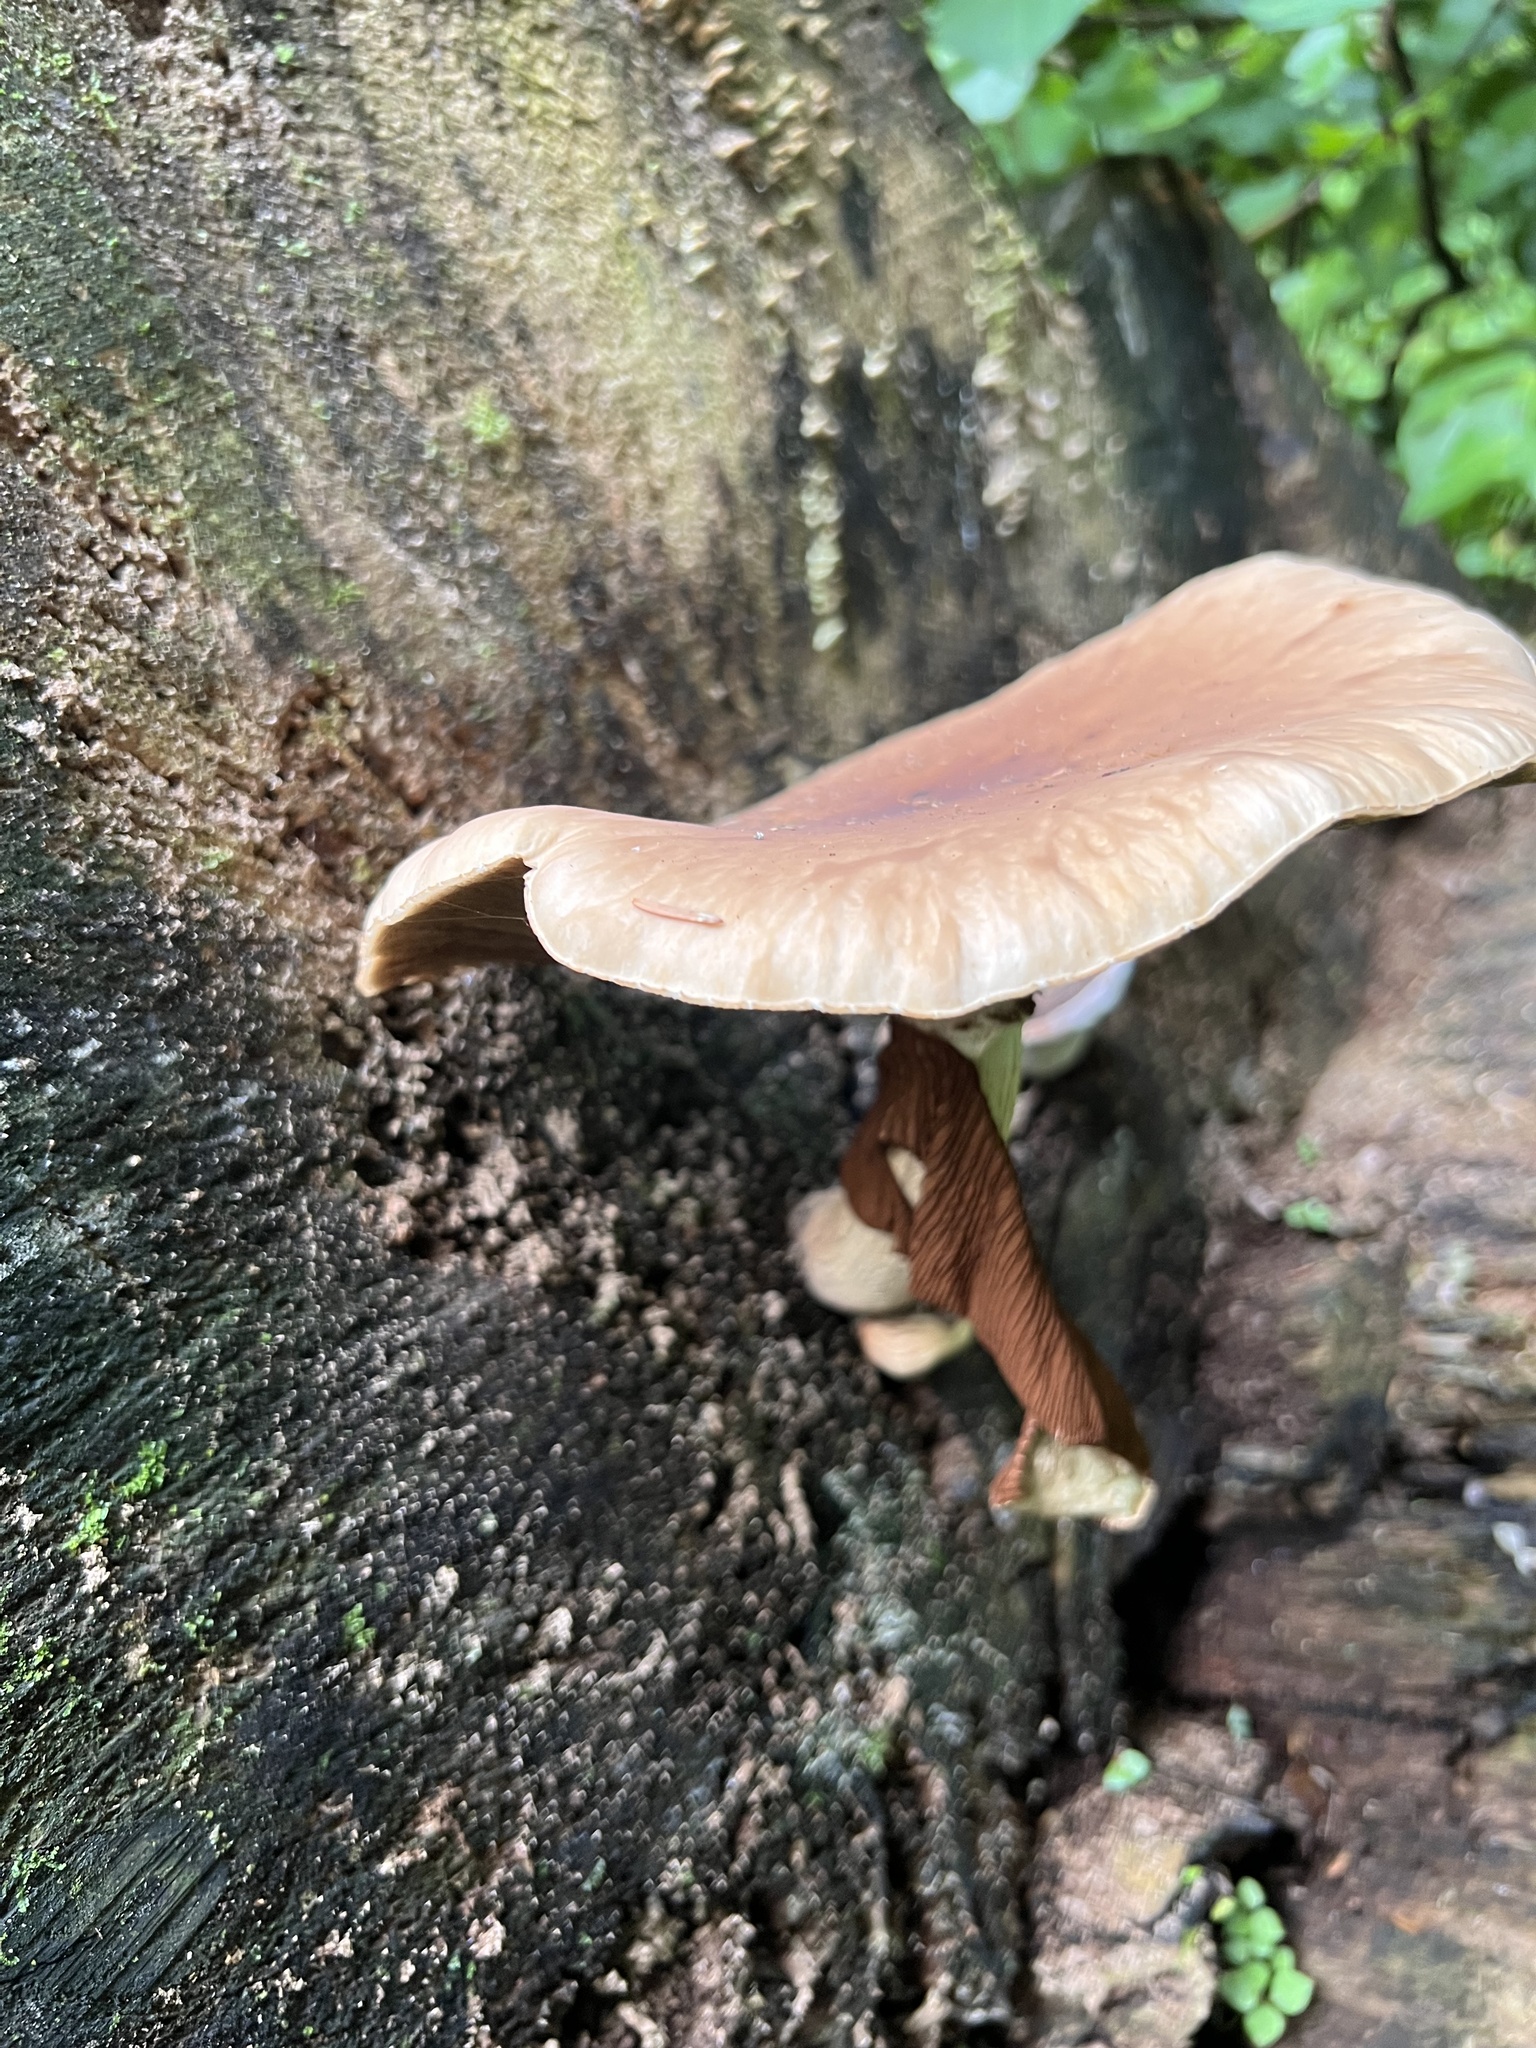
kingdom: Fungi
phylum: Basidiomycota
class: Agaricomycetes
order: Agaricales
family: Tubariaceae
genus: Cyclocybe
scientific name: Cyclocybe parasitica
